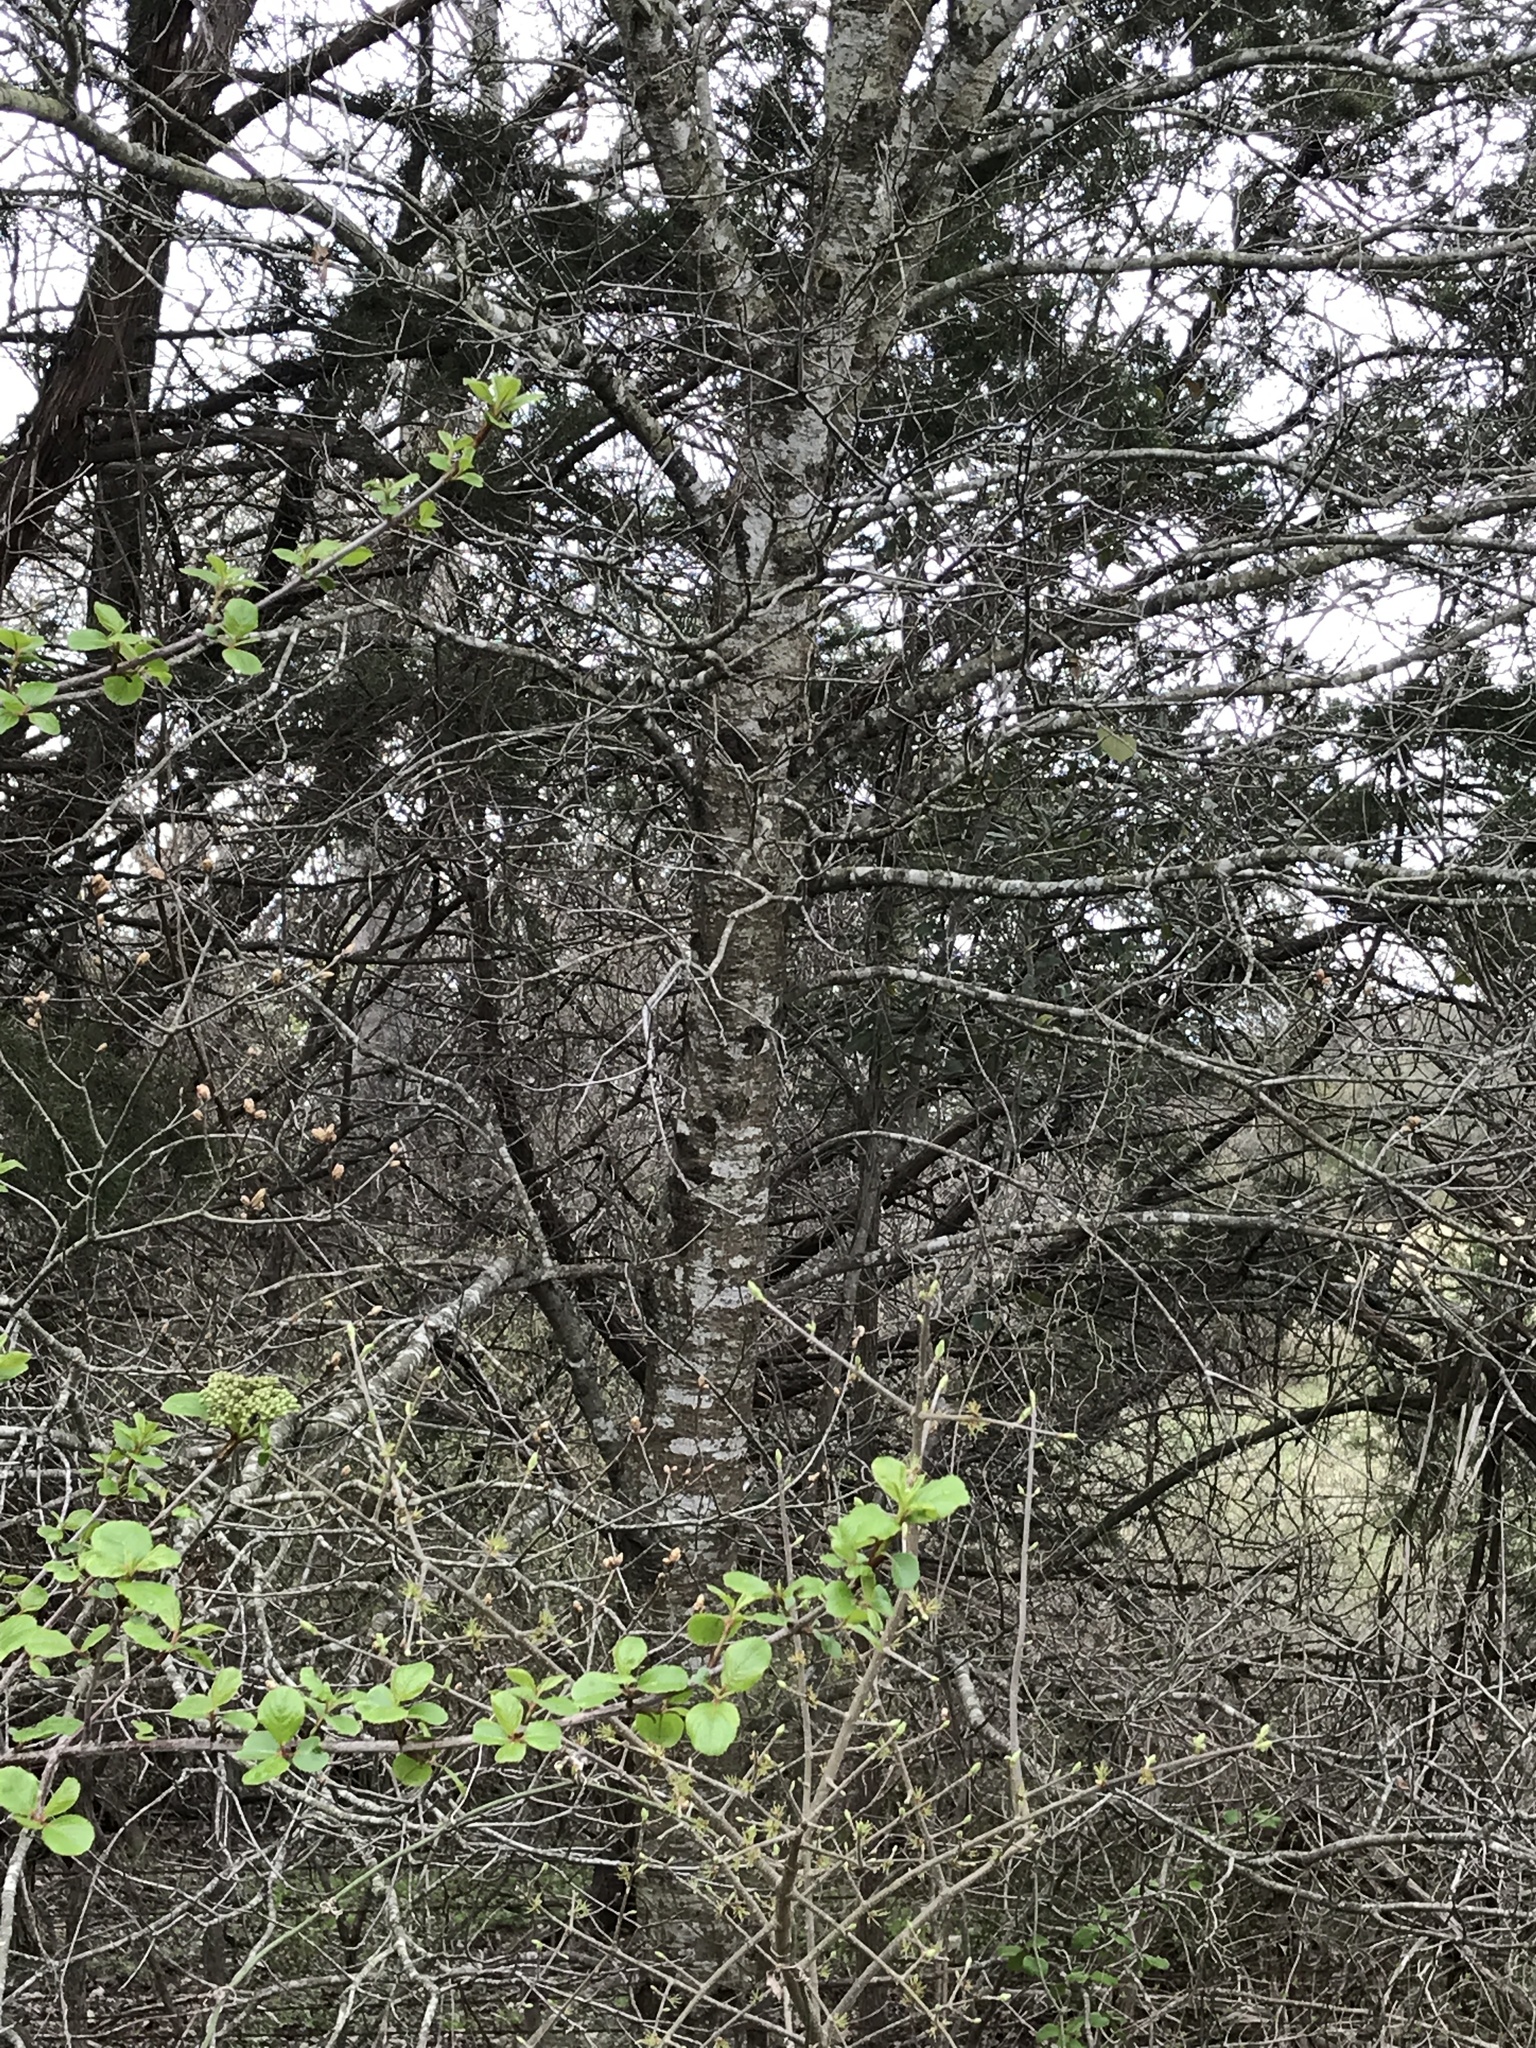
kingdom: Plantae
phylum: Tracheophyta
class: Magnoliopsida
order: Fagales
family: Fagaceae
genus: Quercus
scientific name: Quercus buckleyi
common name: Buckley oak
